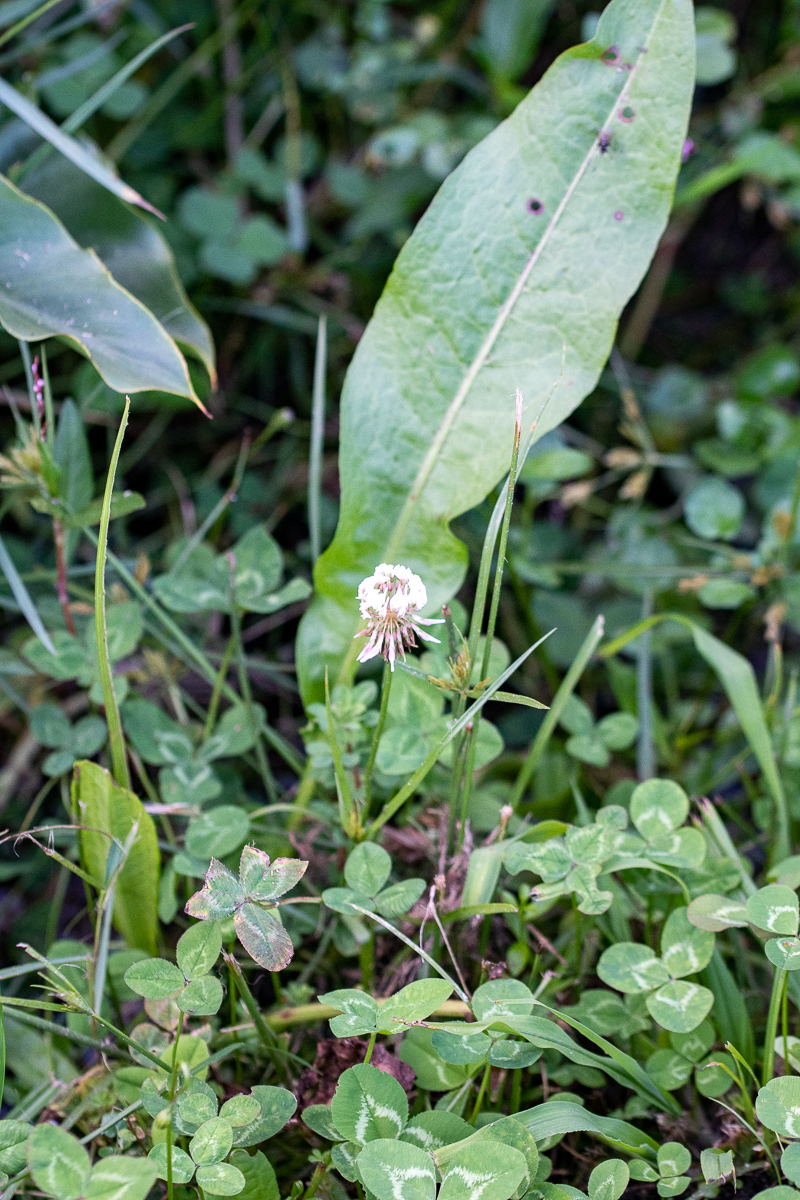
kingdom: Plantae
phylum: Tracheophyta
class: Magnoliopsida
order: Fabales
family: Fabaceae
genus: Trifolium
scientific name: Trifolium repens
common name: White clover
